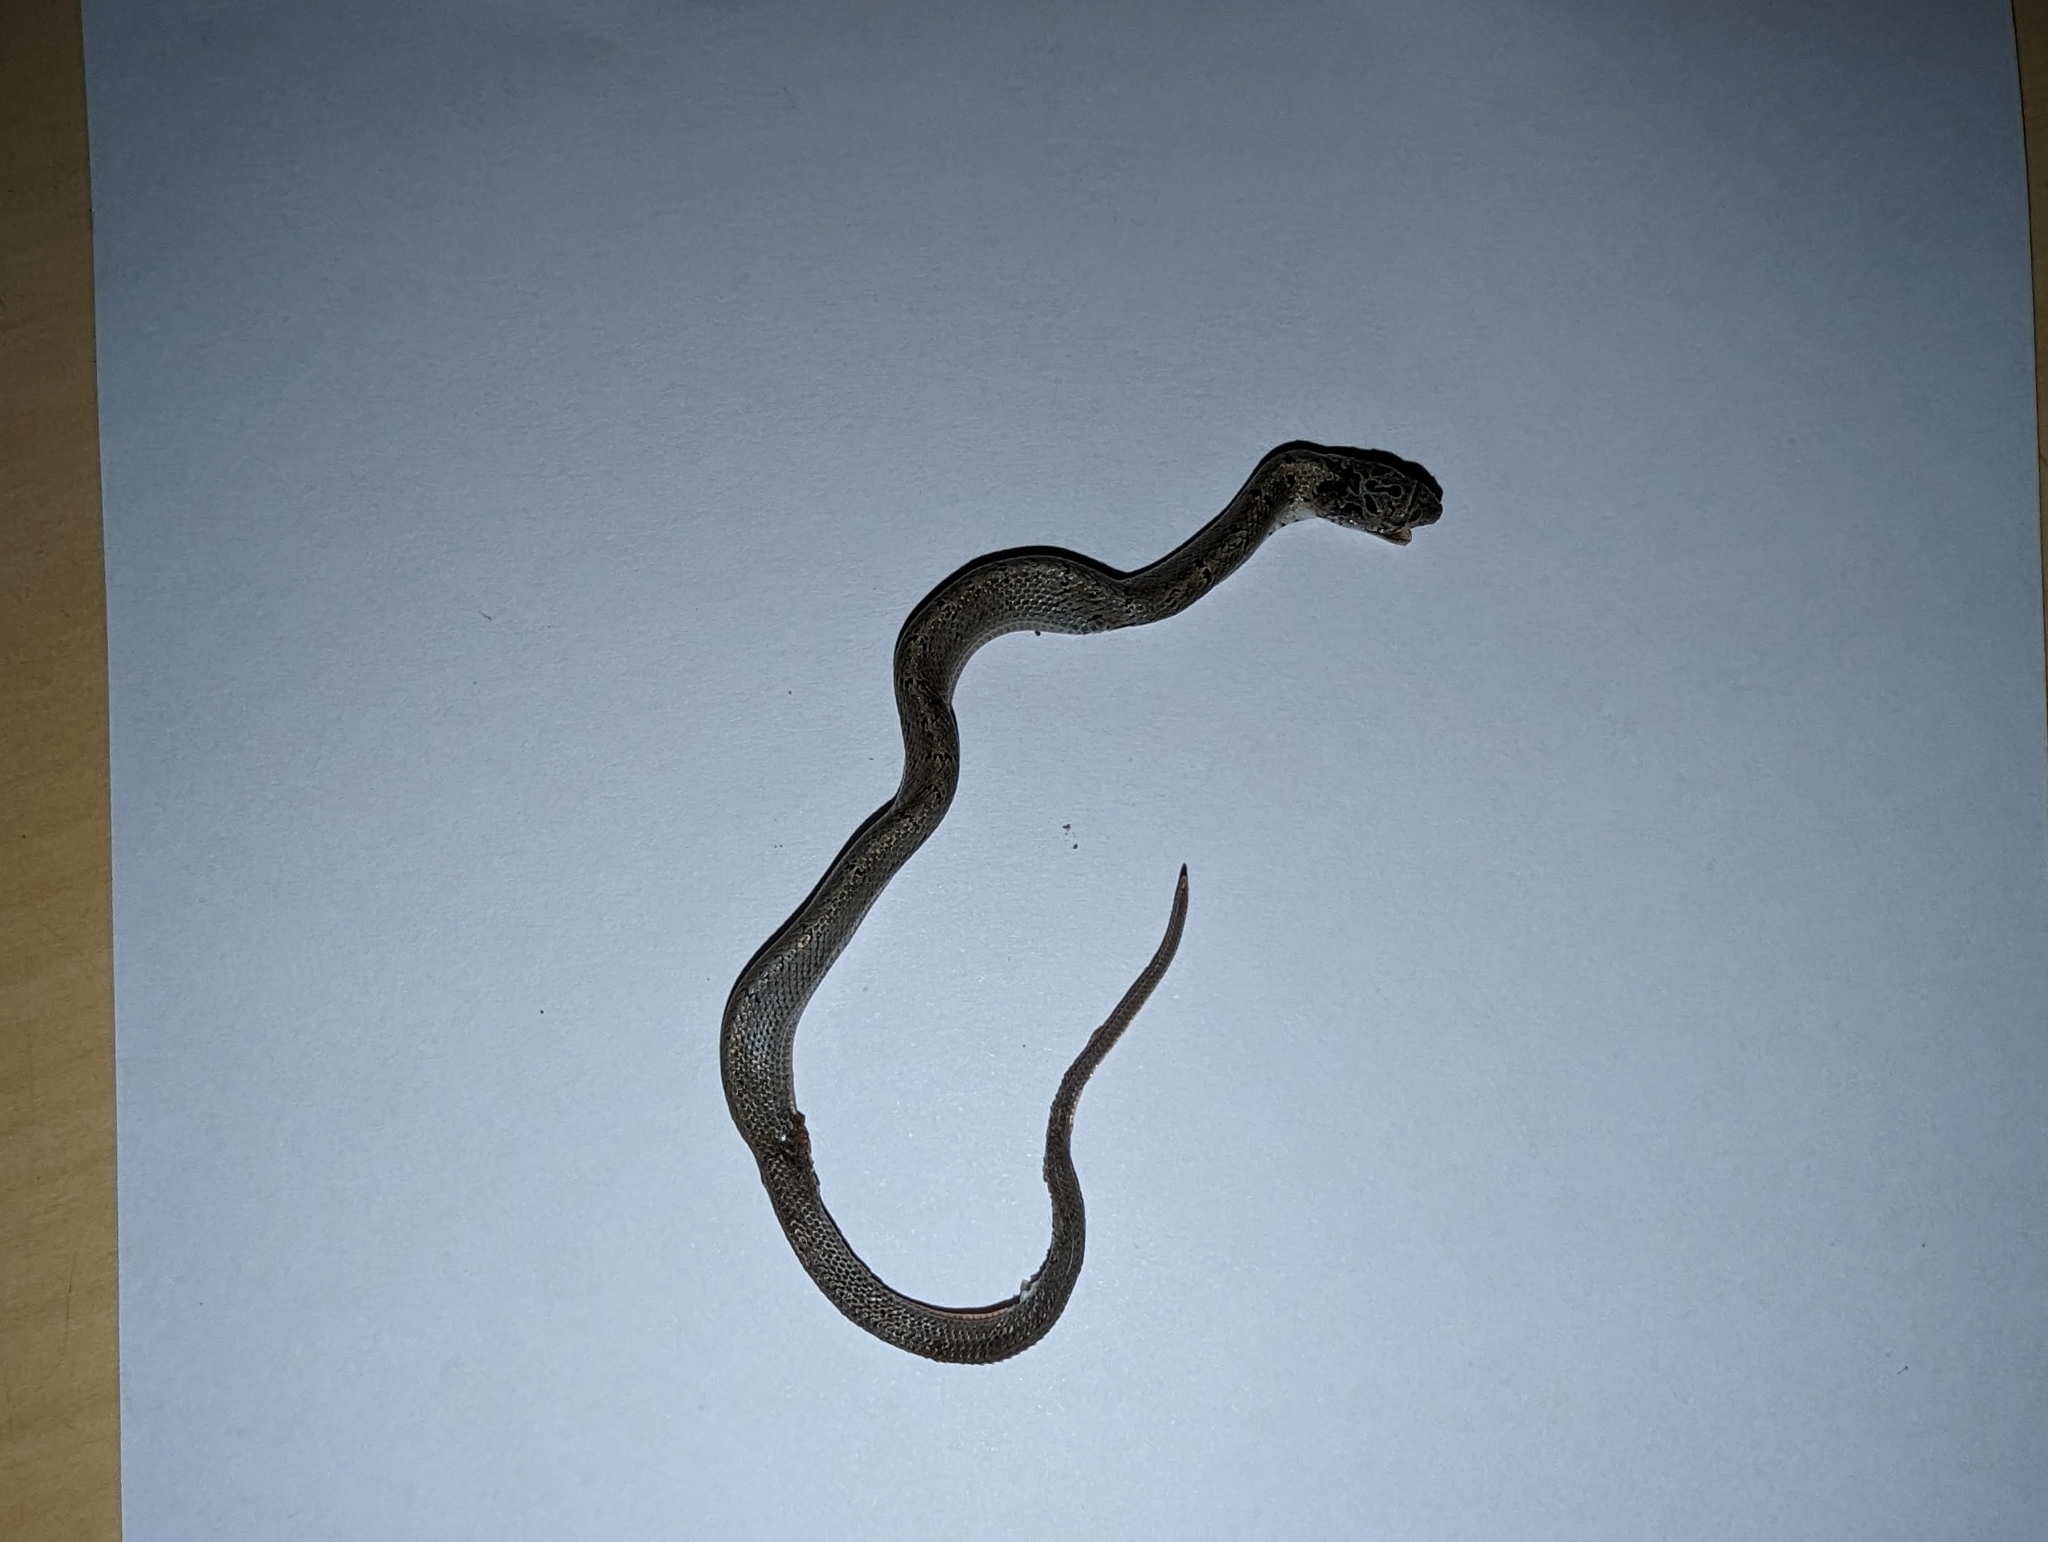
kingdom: Animalia
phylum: Chordata
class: Squamata
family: Colubridae
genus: Oligodon
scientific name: Oligodon formosanus
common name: Formosa kukri snake
